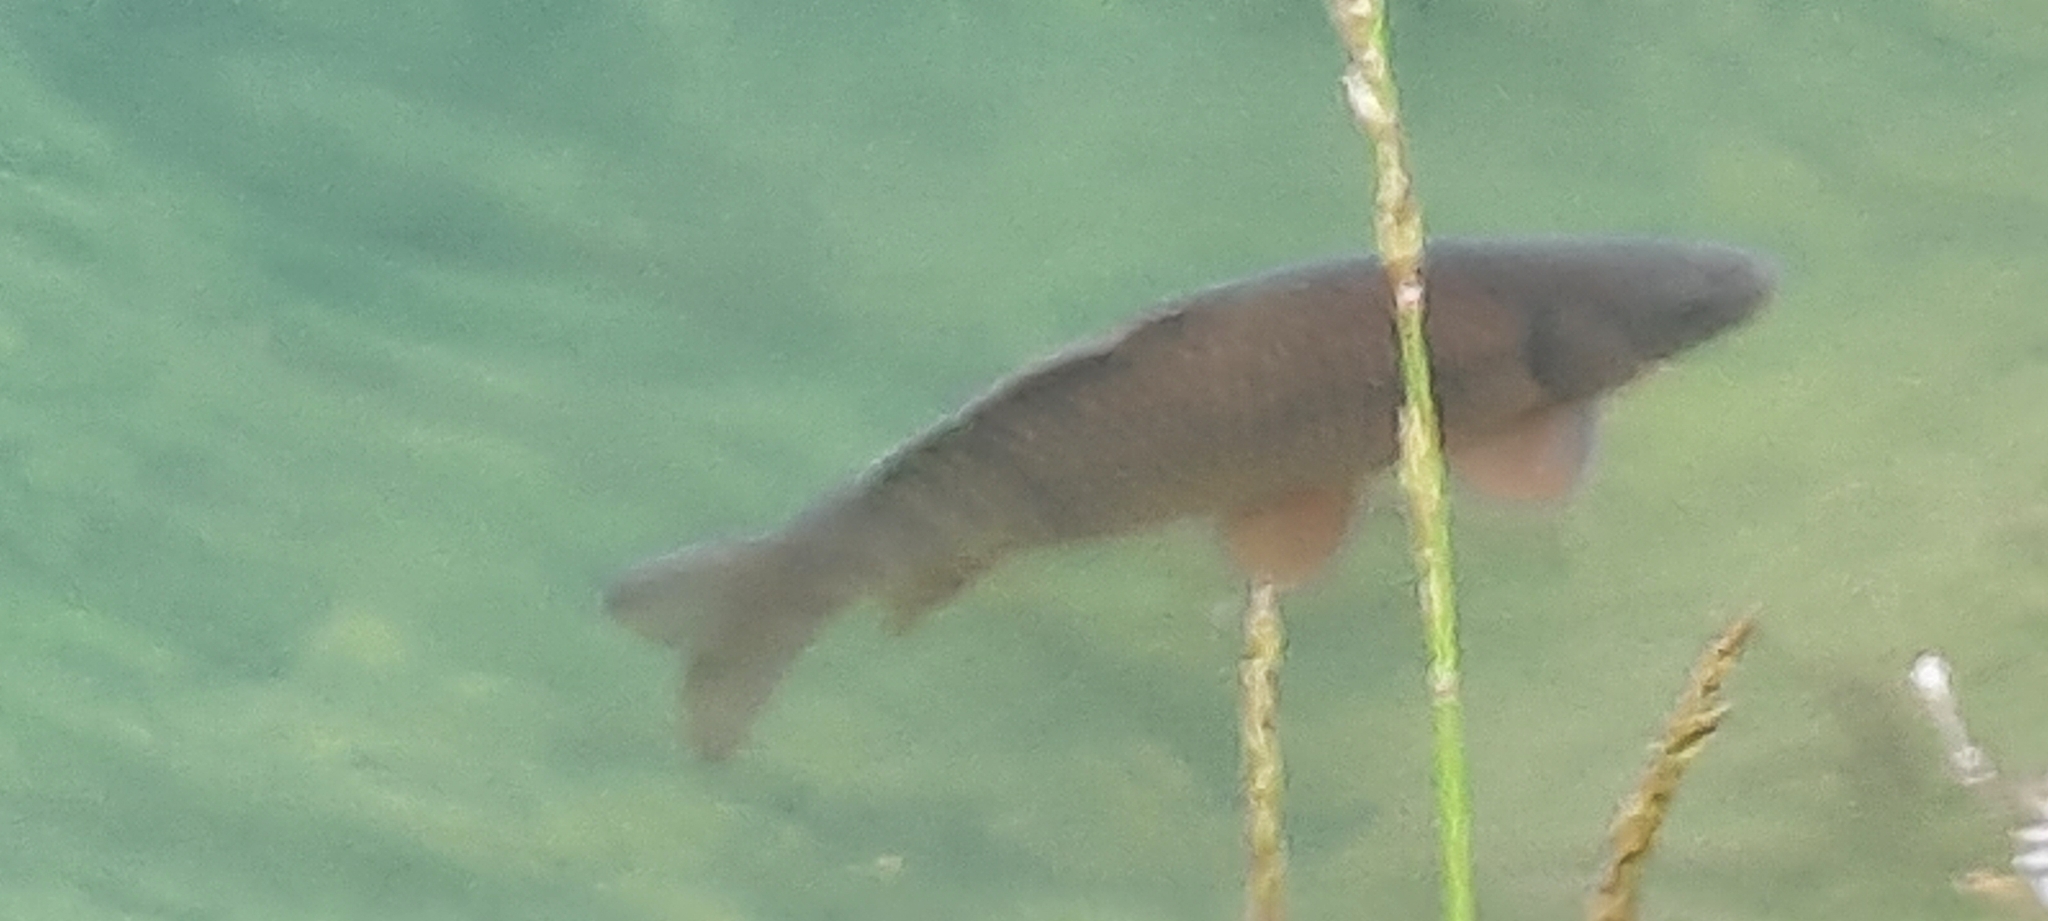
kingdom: Animalia
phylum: Chordata
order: Cypriniformes
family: Cyprinidae
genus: Cyprinus
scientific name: Cyprinus carpio
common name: Common carp
